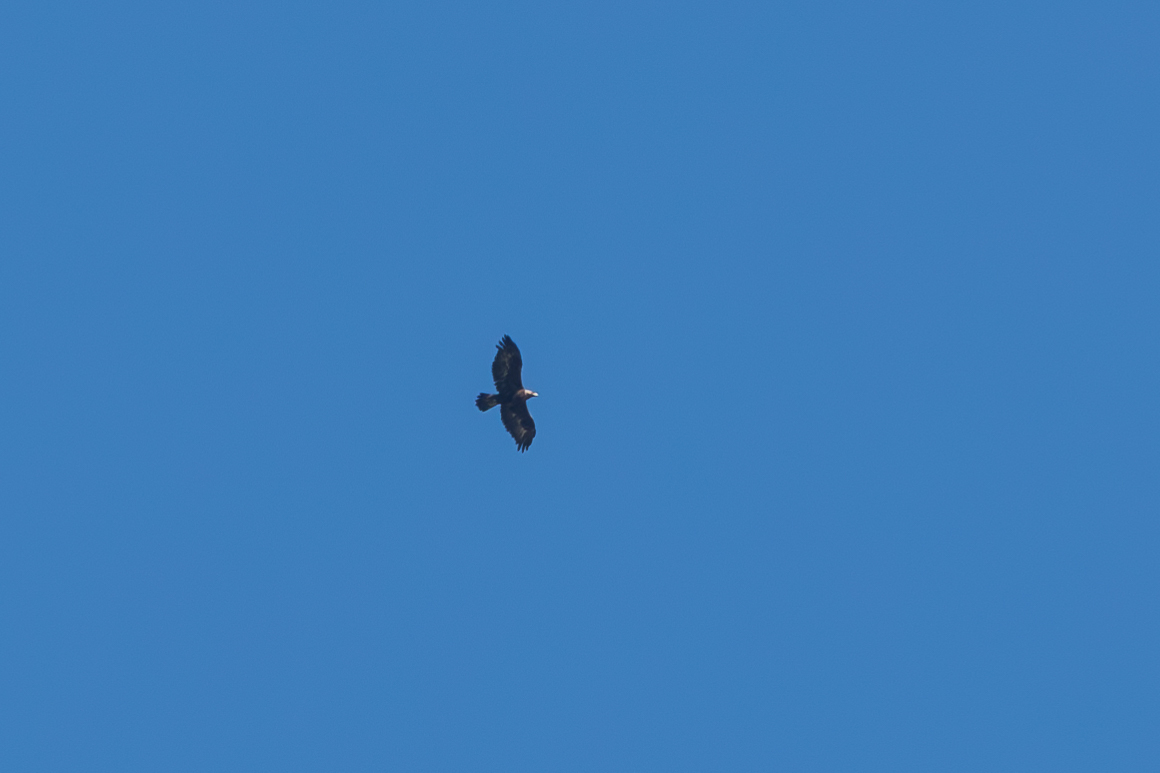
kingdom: Animalia
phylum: Chordata
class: Aves
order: Accipitriformes
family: Accipitridae
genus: Aquila
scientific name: Aquila chrysaetos
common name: Golden eagle
